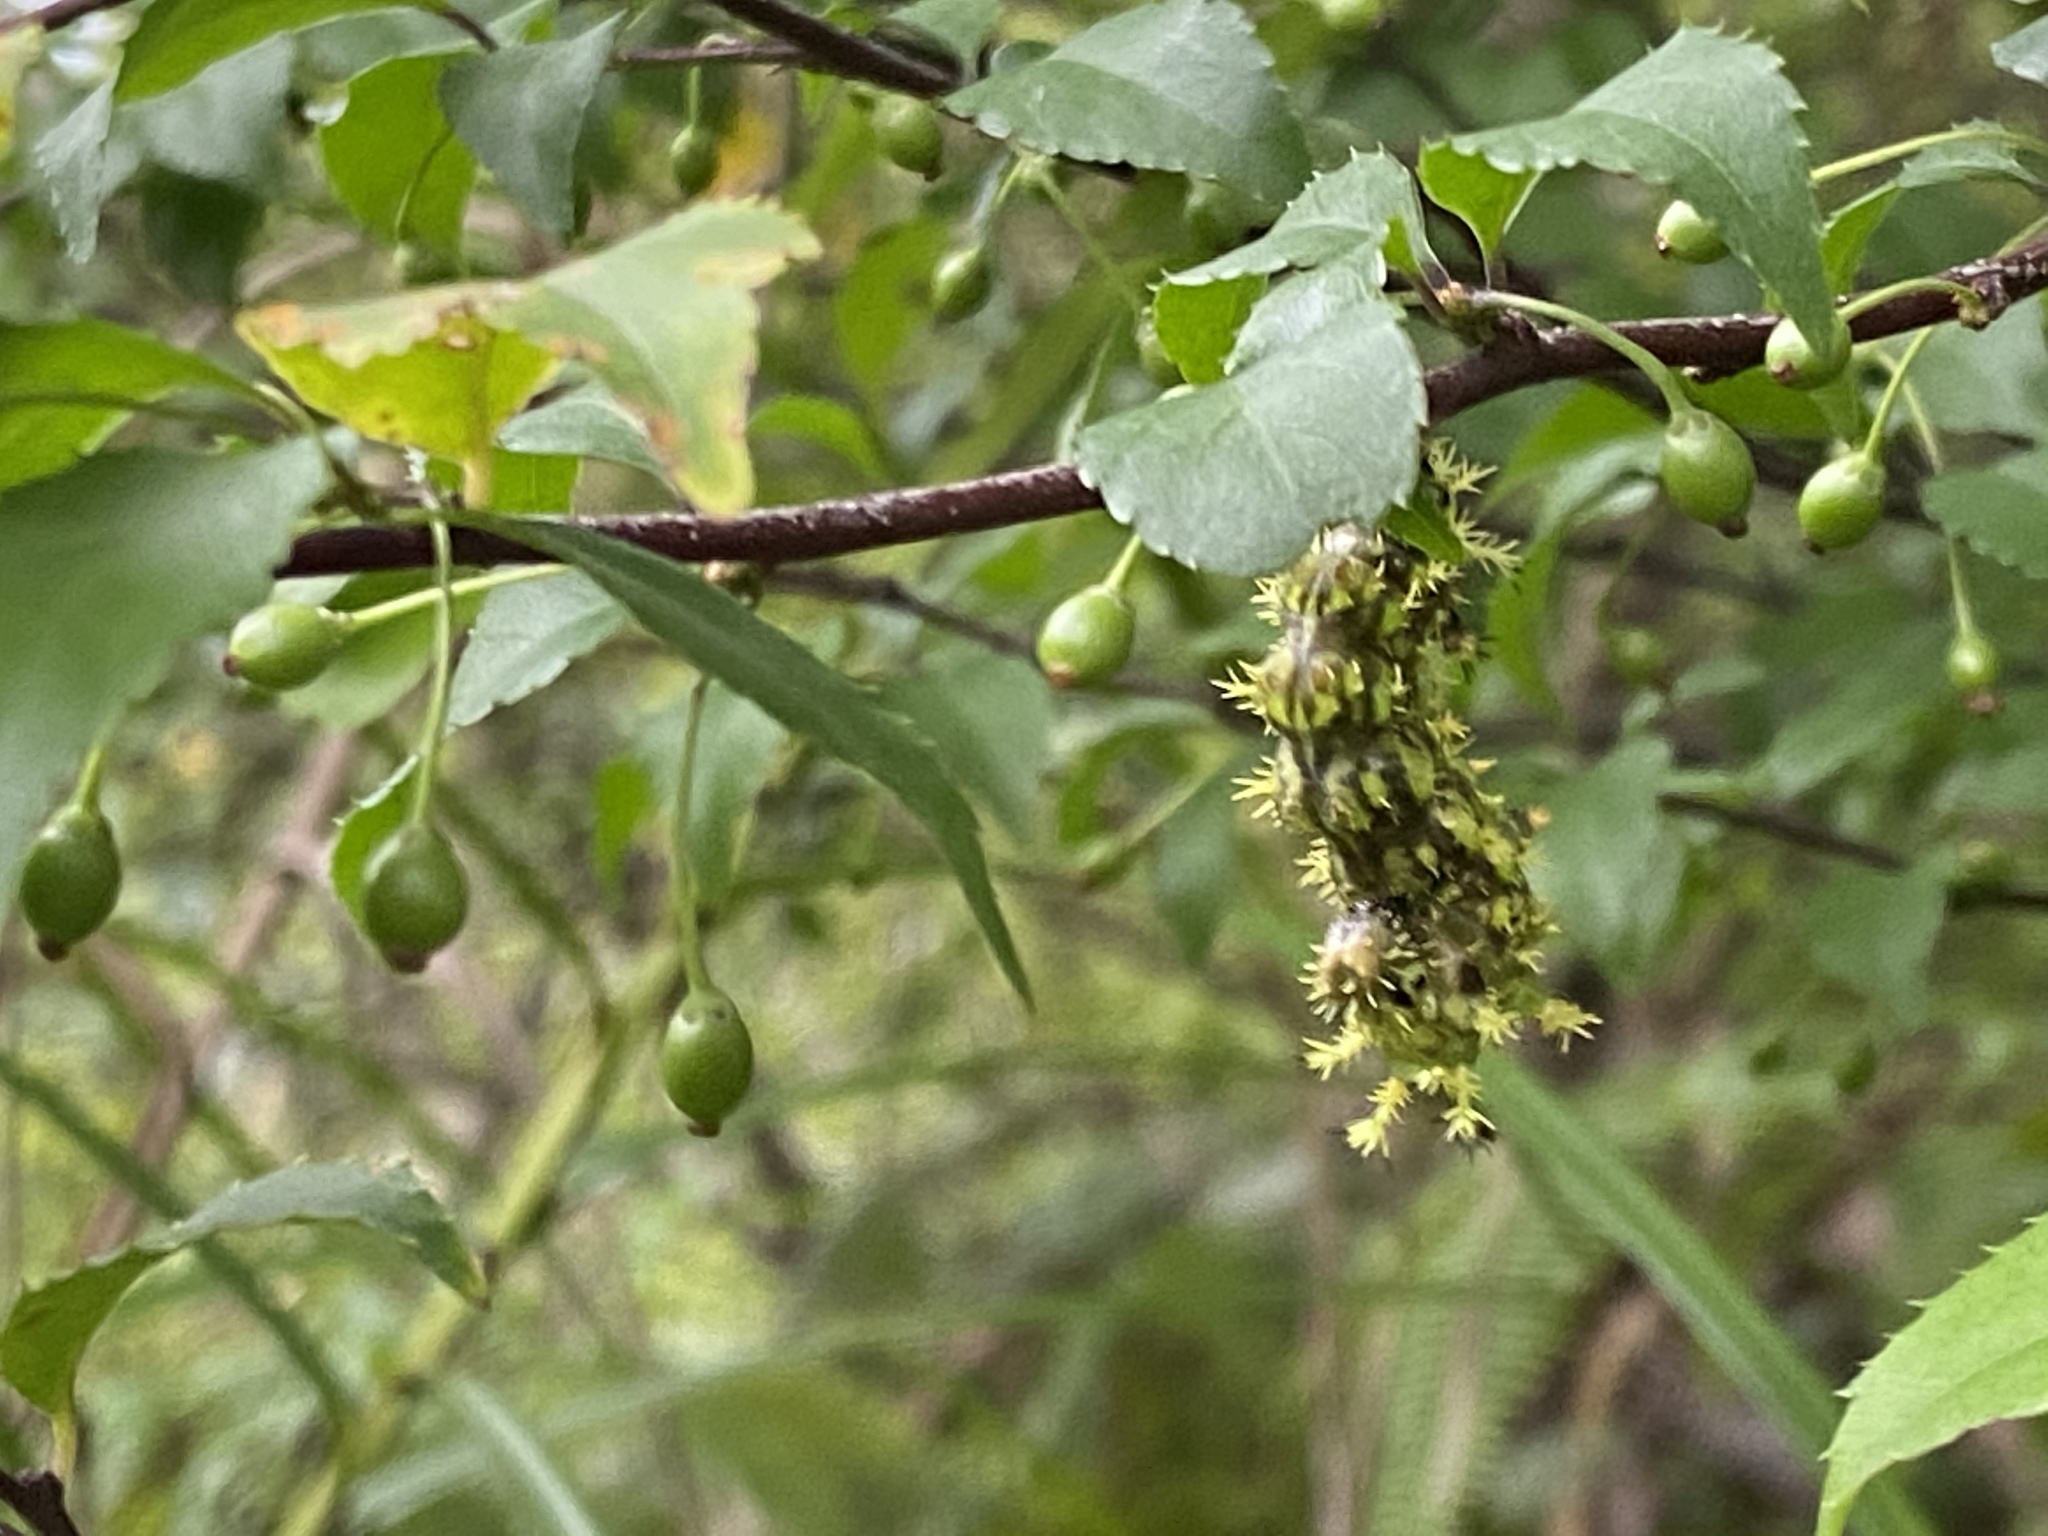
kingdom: Plantae
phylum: Tracheophyta
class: Magnoliopsida
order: Aquifoliales
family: Aquifoliaceae
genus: Ilex
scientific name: Ilex asprella
